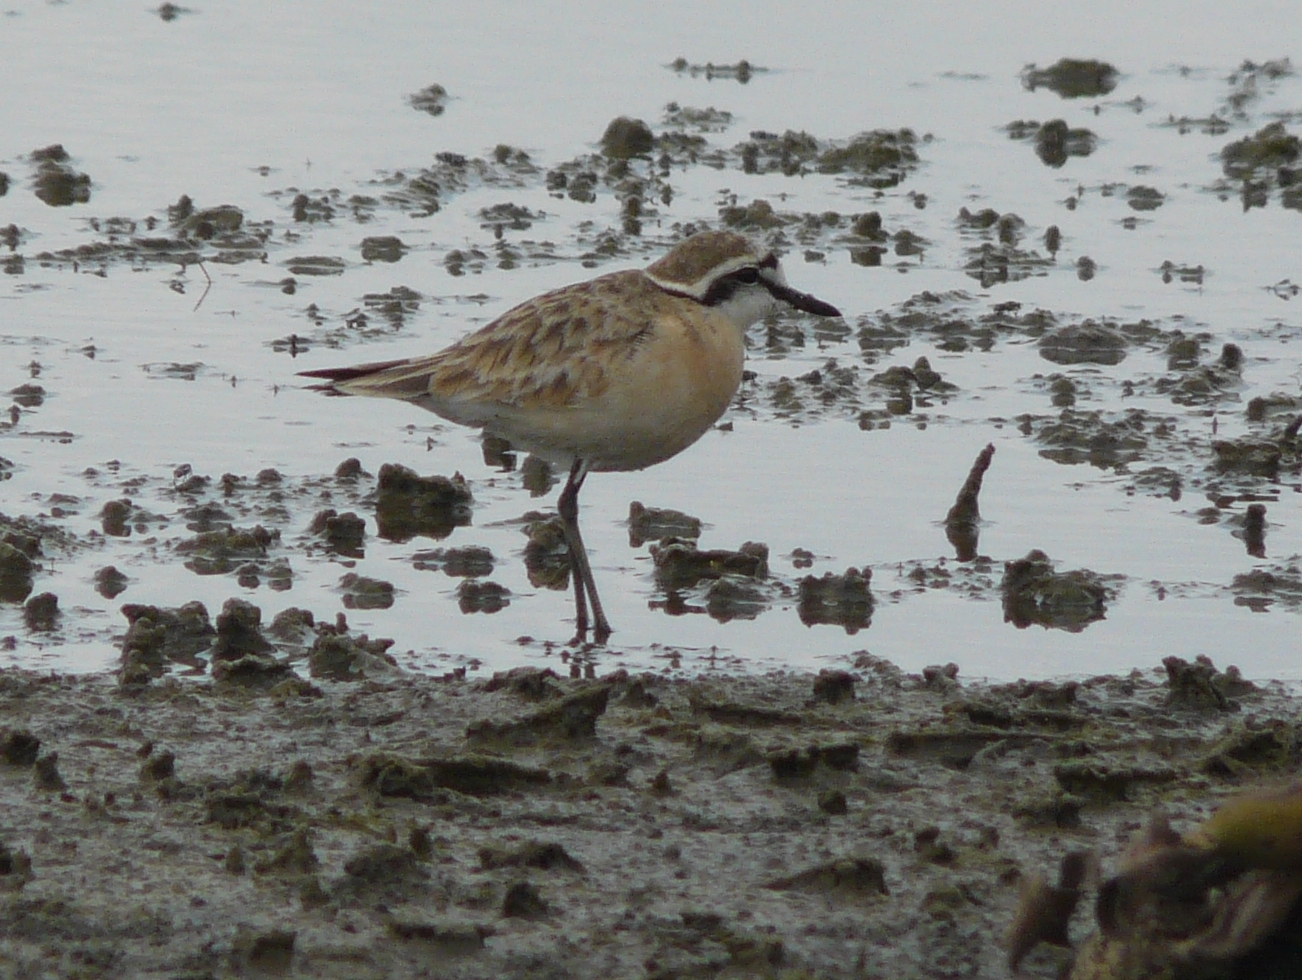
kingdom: Animalia
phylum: Chordata
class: Aves
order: Charadriiformes
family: Charadriidae
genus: Anarhynchus
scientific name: Anarhynchus
